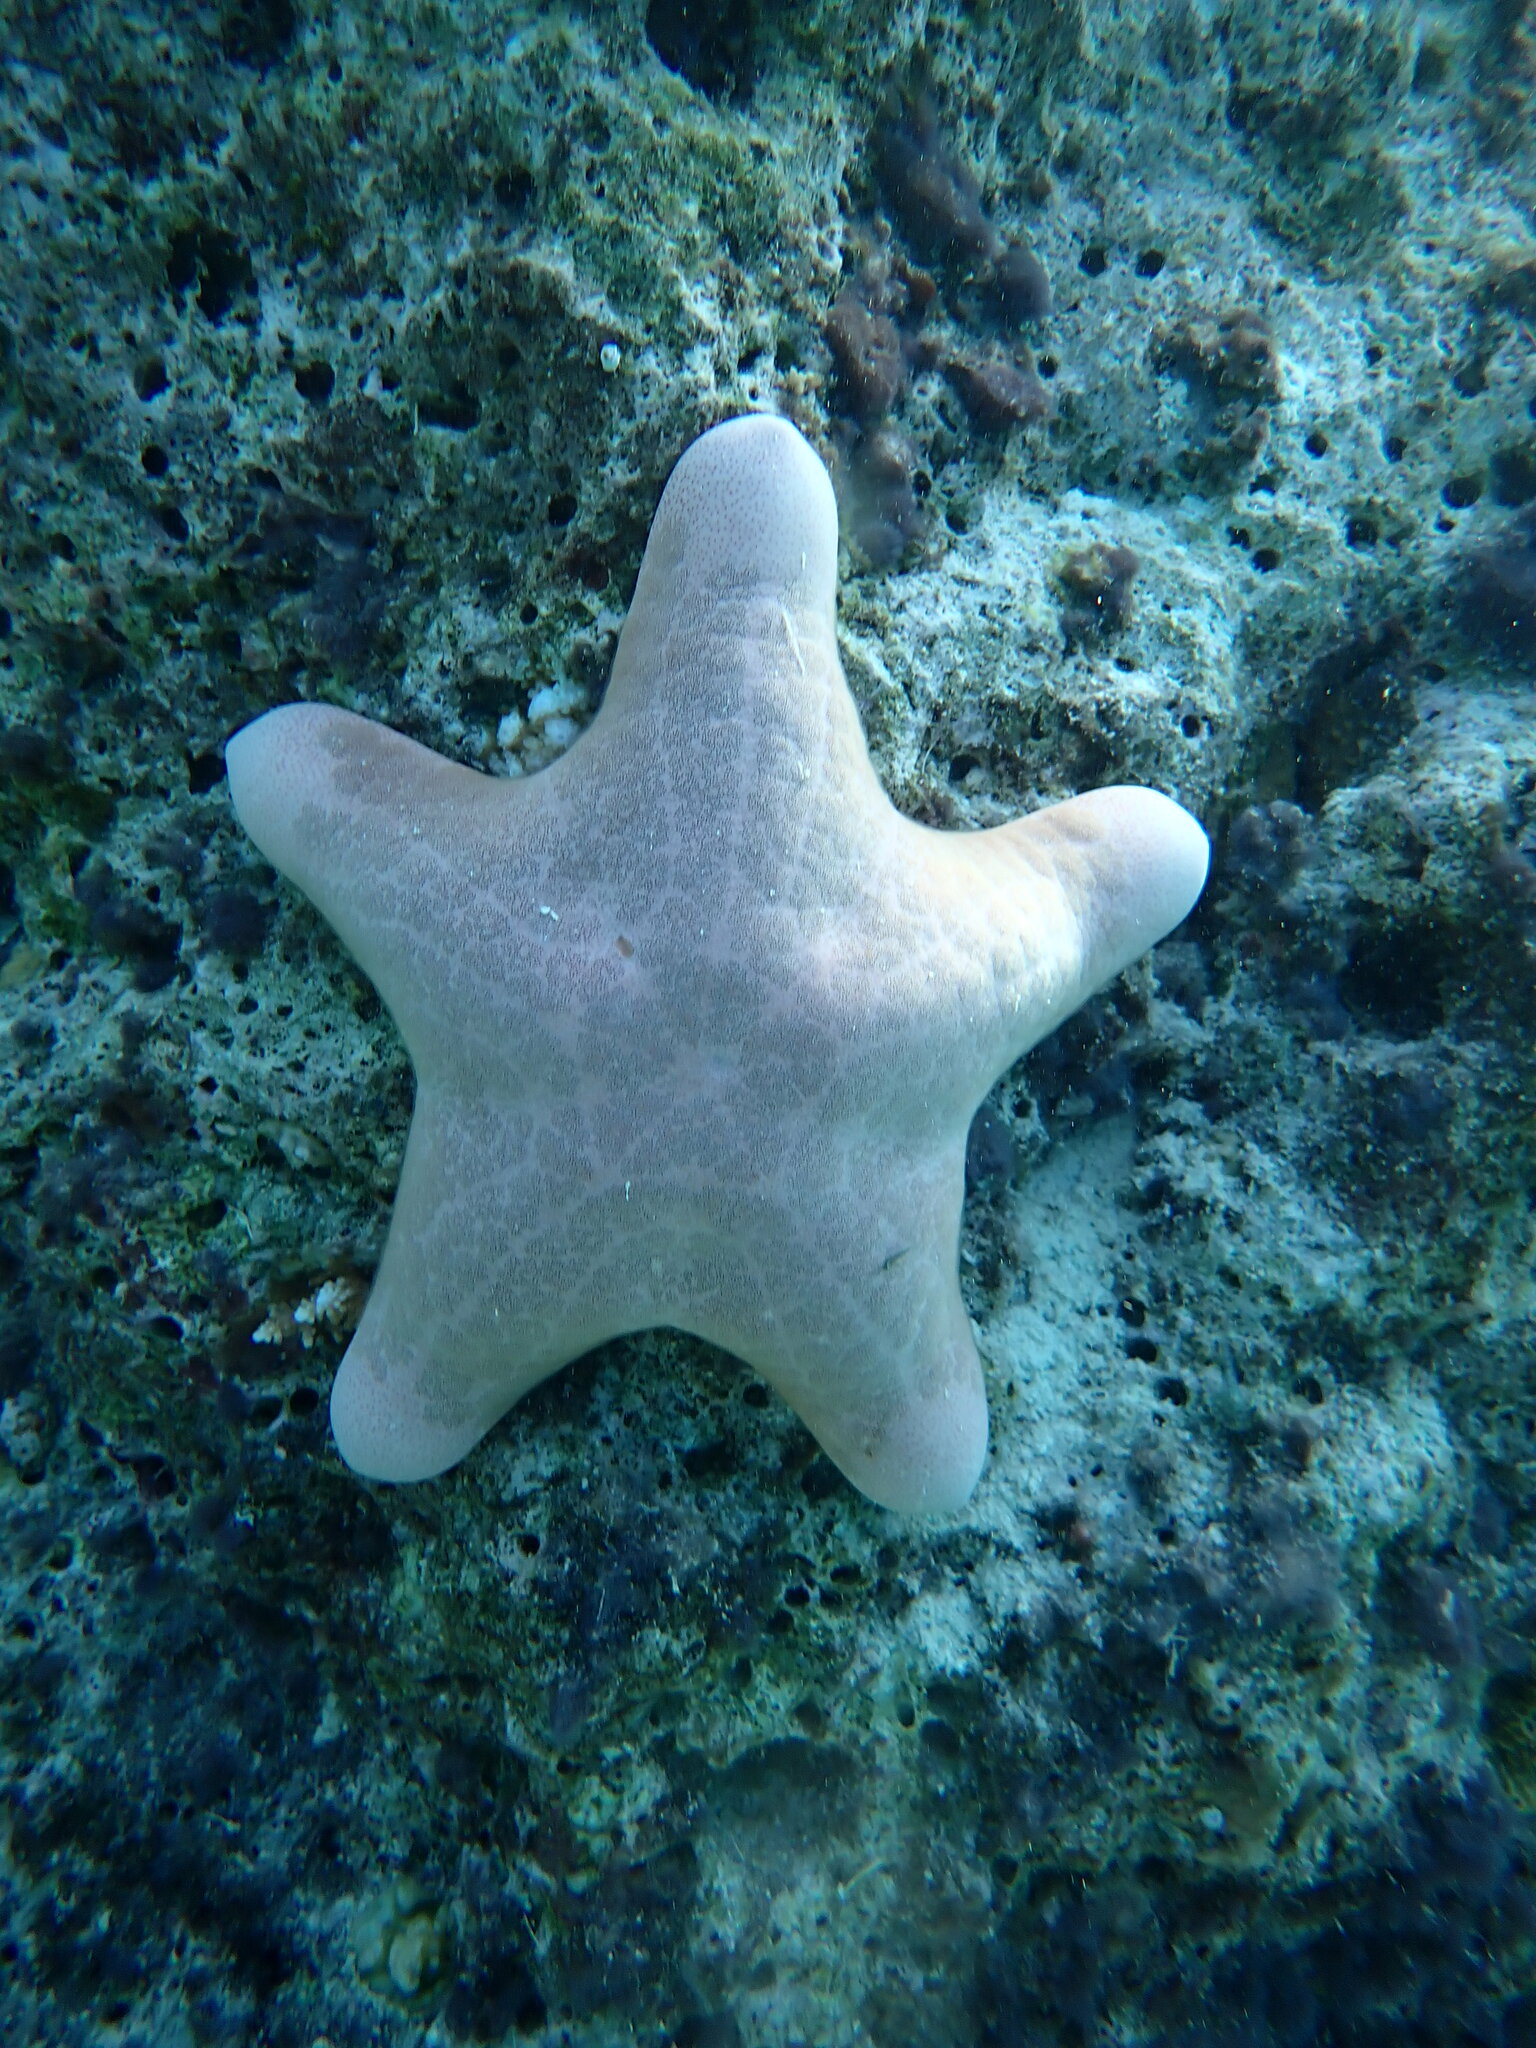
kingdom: Animalia
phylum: Echinodermata
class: Asteroidea
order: Valvatida
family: Oreasteridae
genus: Choriaster
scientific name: Choriaster granulatus
